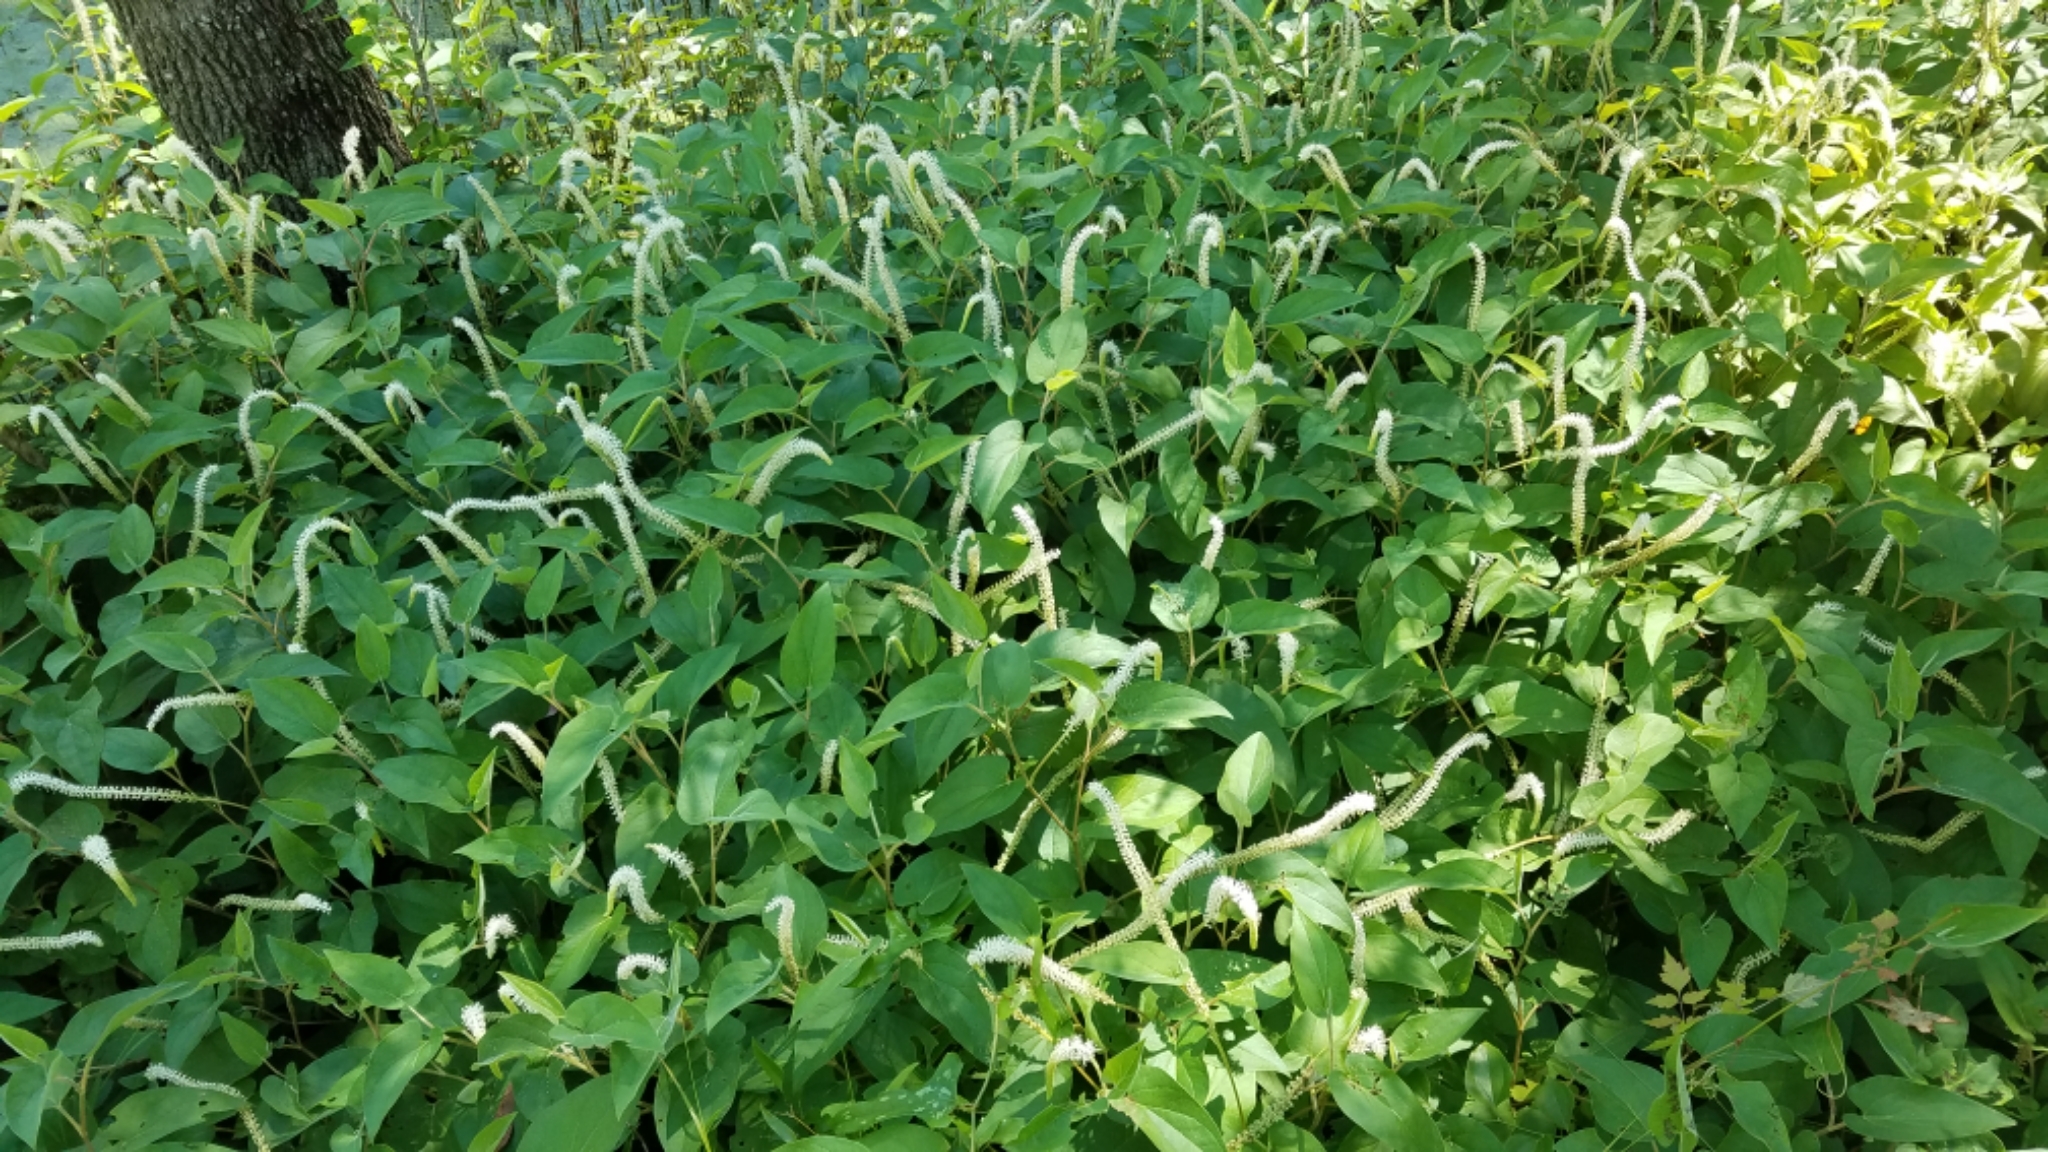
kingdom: Plantae
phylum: Tracheophyta
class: Magnoliopsida
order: Piperales
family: Saururaceae
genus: Saururus
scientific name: Saururus cernuus
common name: Lizard's-tail
